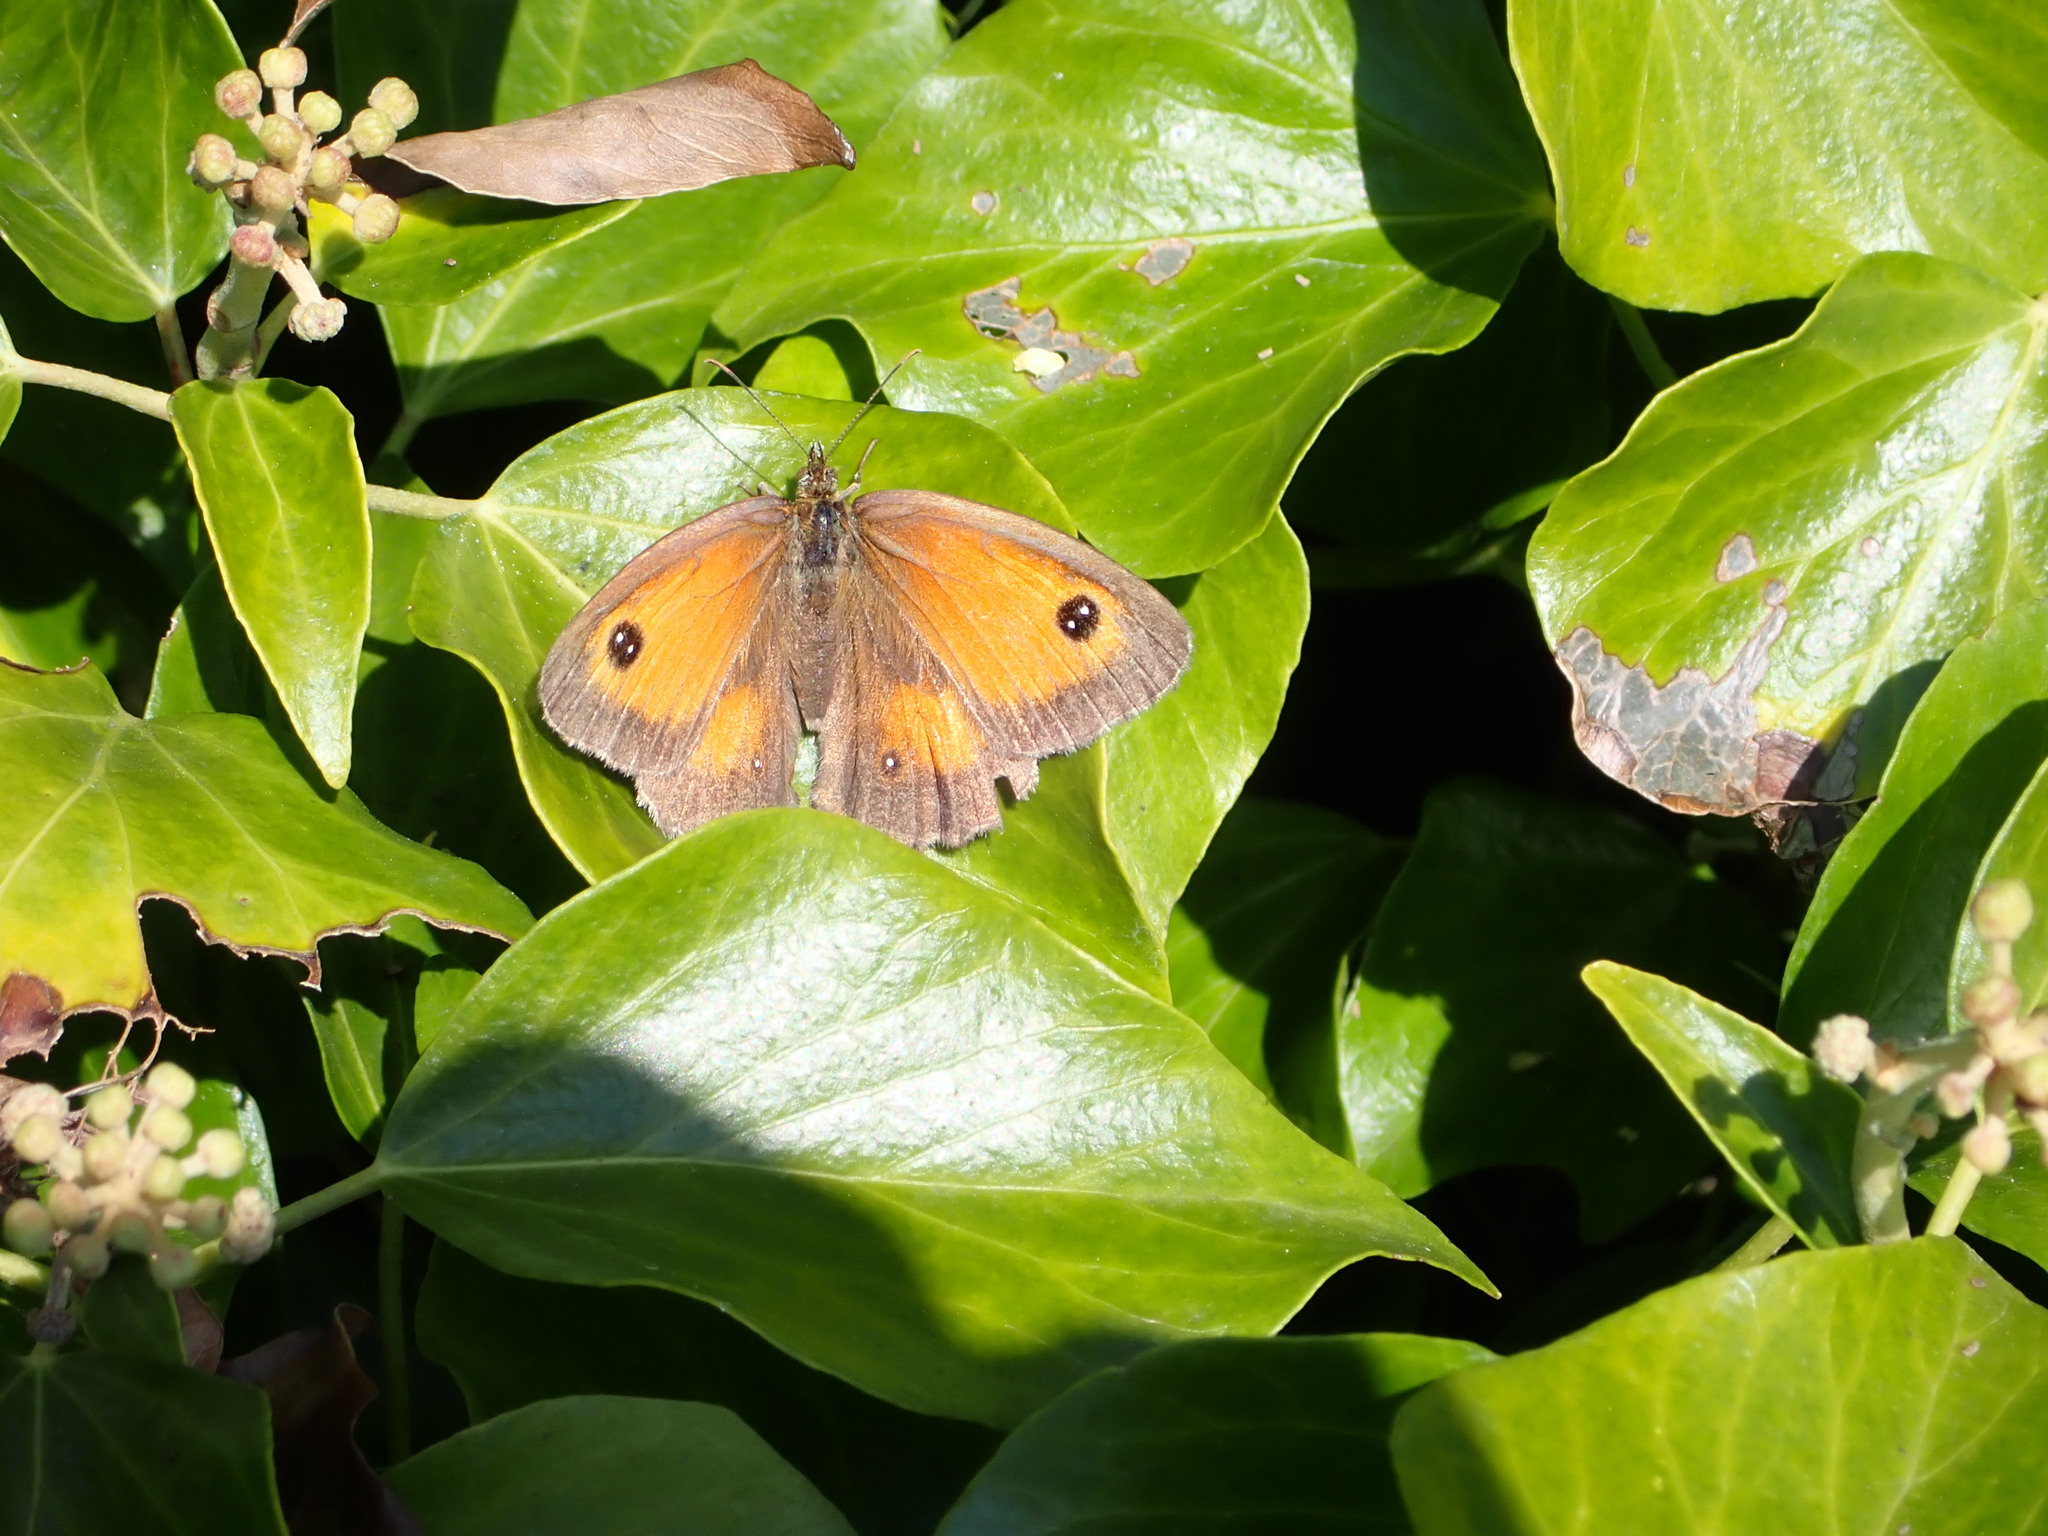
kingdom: Animalia
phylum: Arthropoda
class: Insecta
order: Lepidoptera
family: Nymphalidae
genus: Pyronia
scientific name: Pyronia tithonus
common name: Gatekeeper
